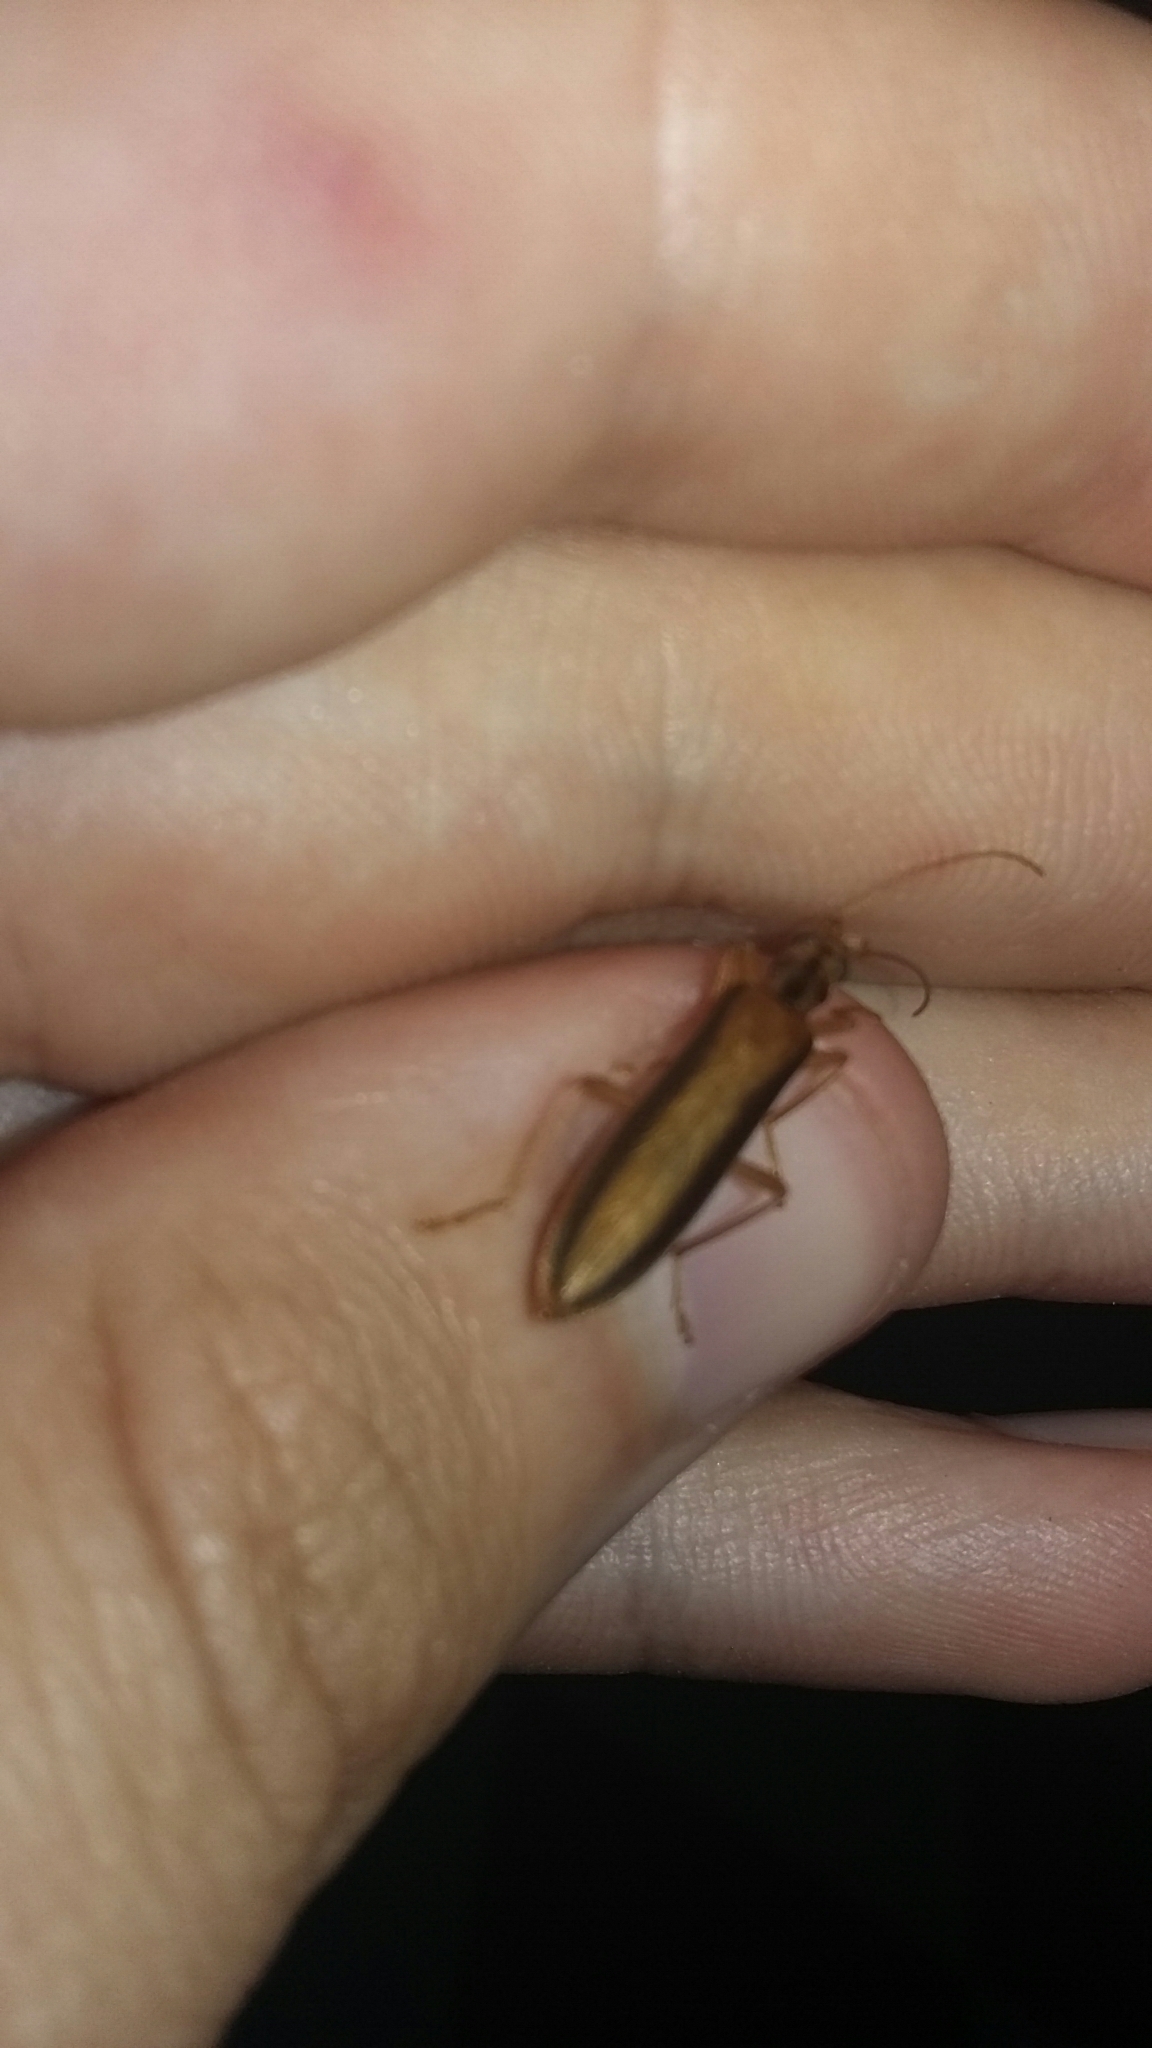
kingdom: Animalia
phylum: Arthropoda
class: Insecta
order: Coleoptera
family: Oedemeridae
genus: Thelyphassa
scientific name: Thelyphassa
